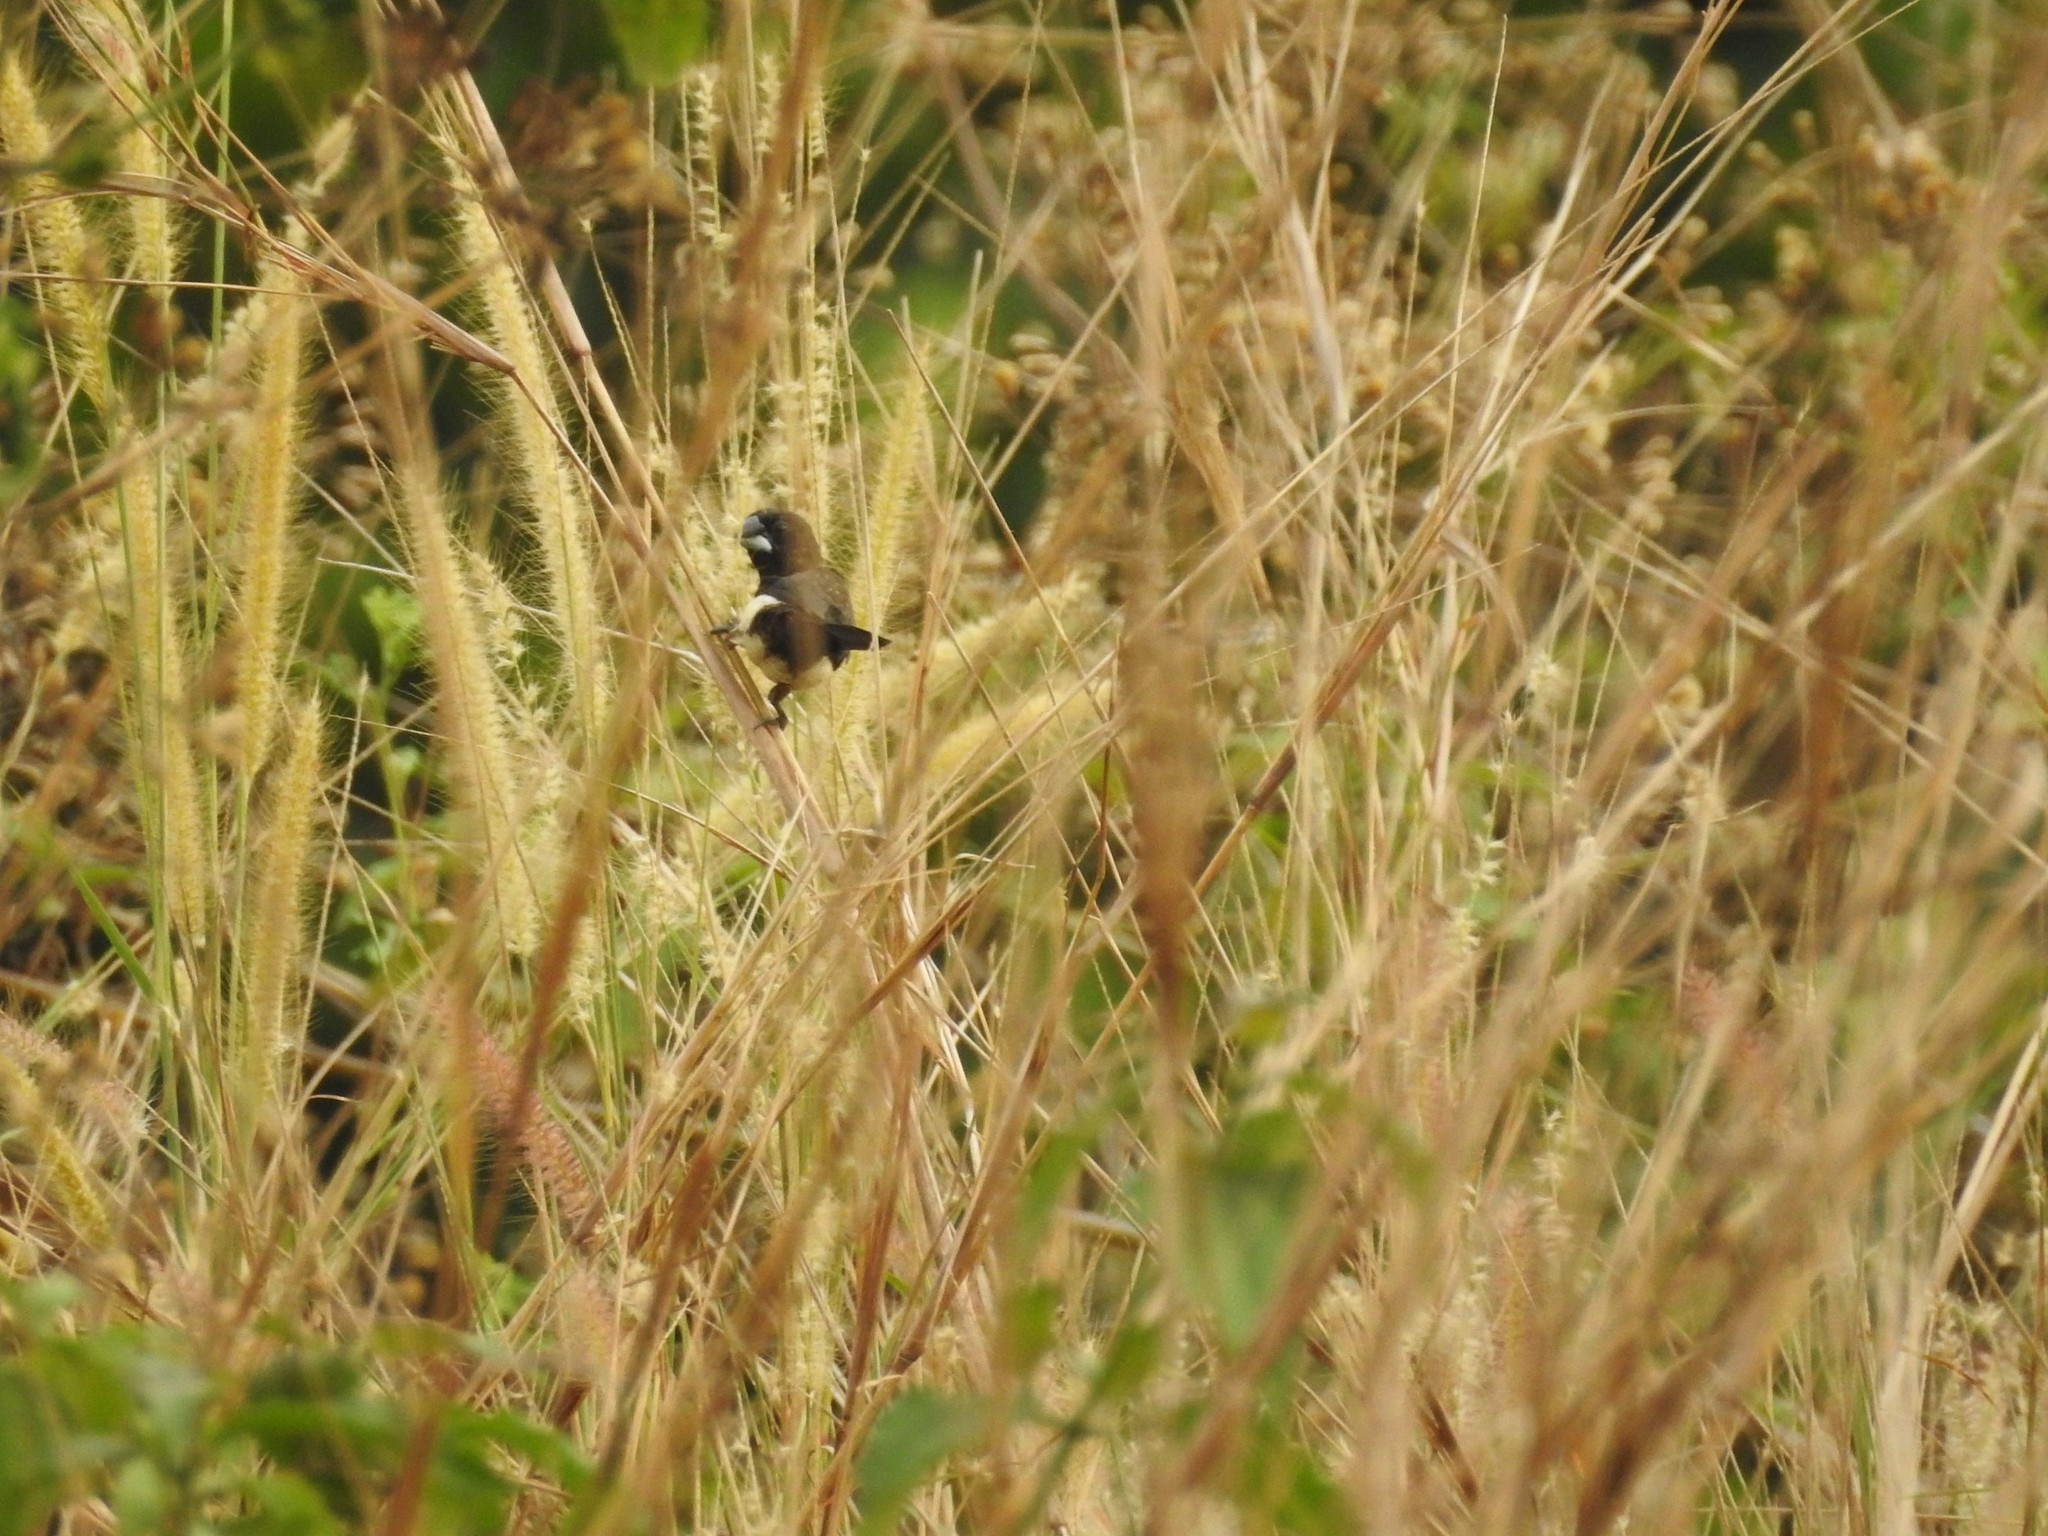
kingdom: Animalia
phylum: Chordata
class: Aves
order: Passeriformes
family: Estrildidae
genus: Lonchura
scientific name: Lonchura striata
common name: White-rumped munia
